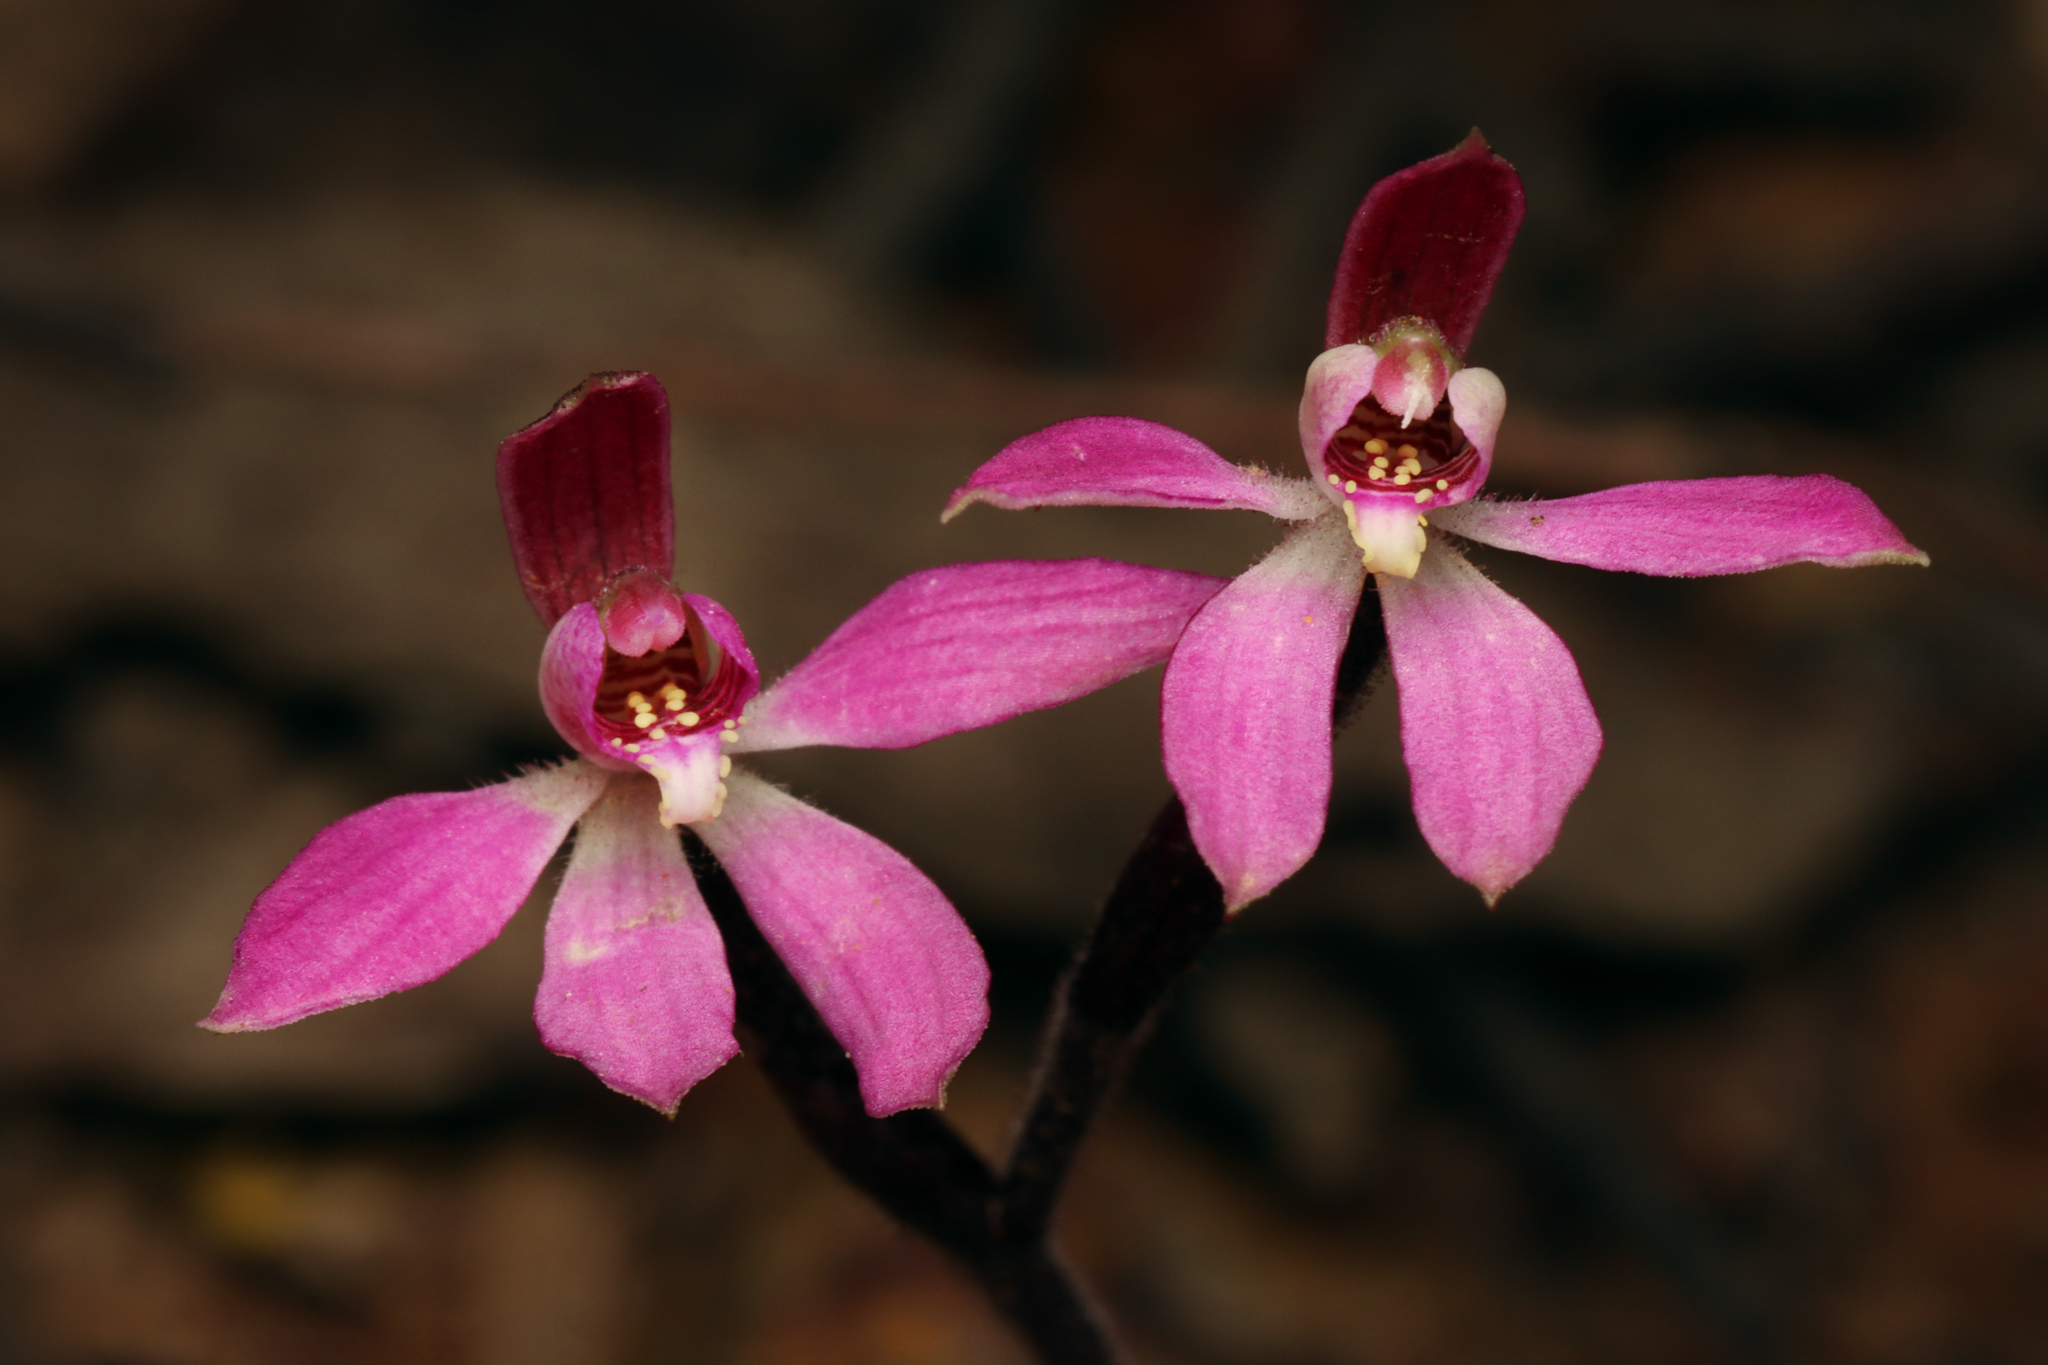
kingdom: Plantae
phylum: Tracheophyta
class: Liliopsida
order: Asparagales
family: Orchidaceae
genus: Caladenia
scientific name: Caladenia carnea
